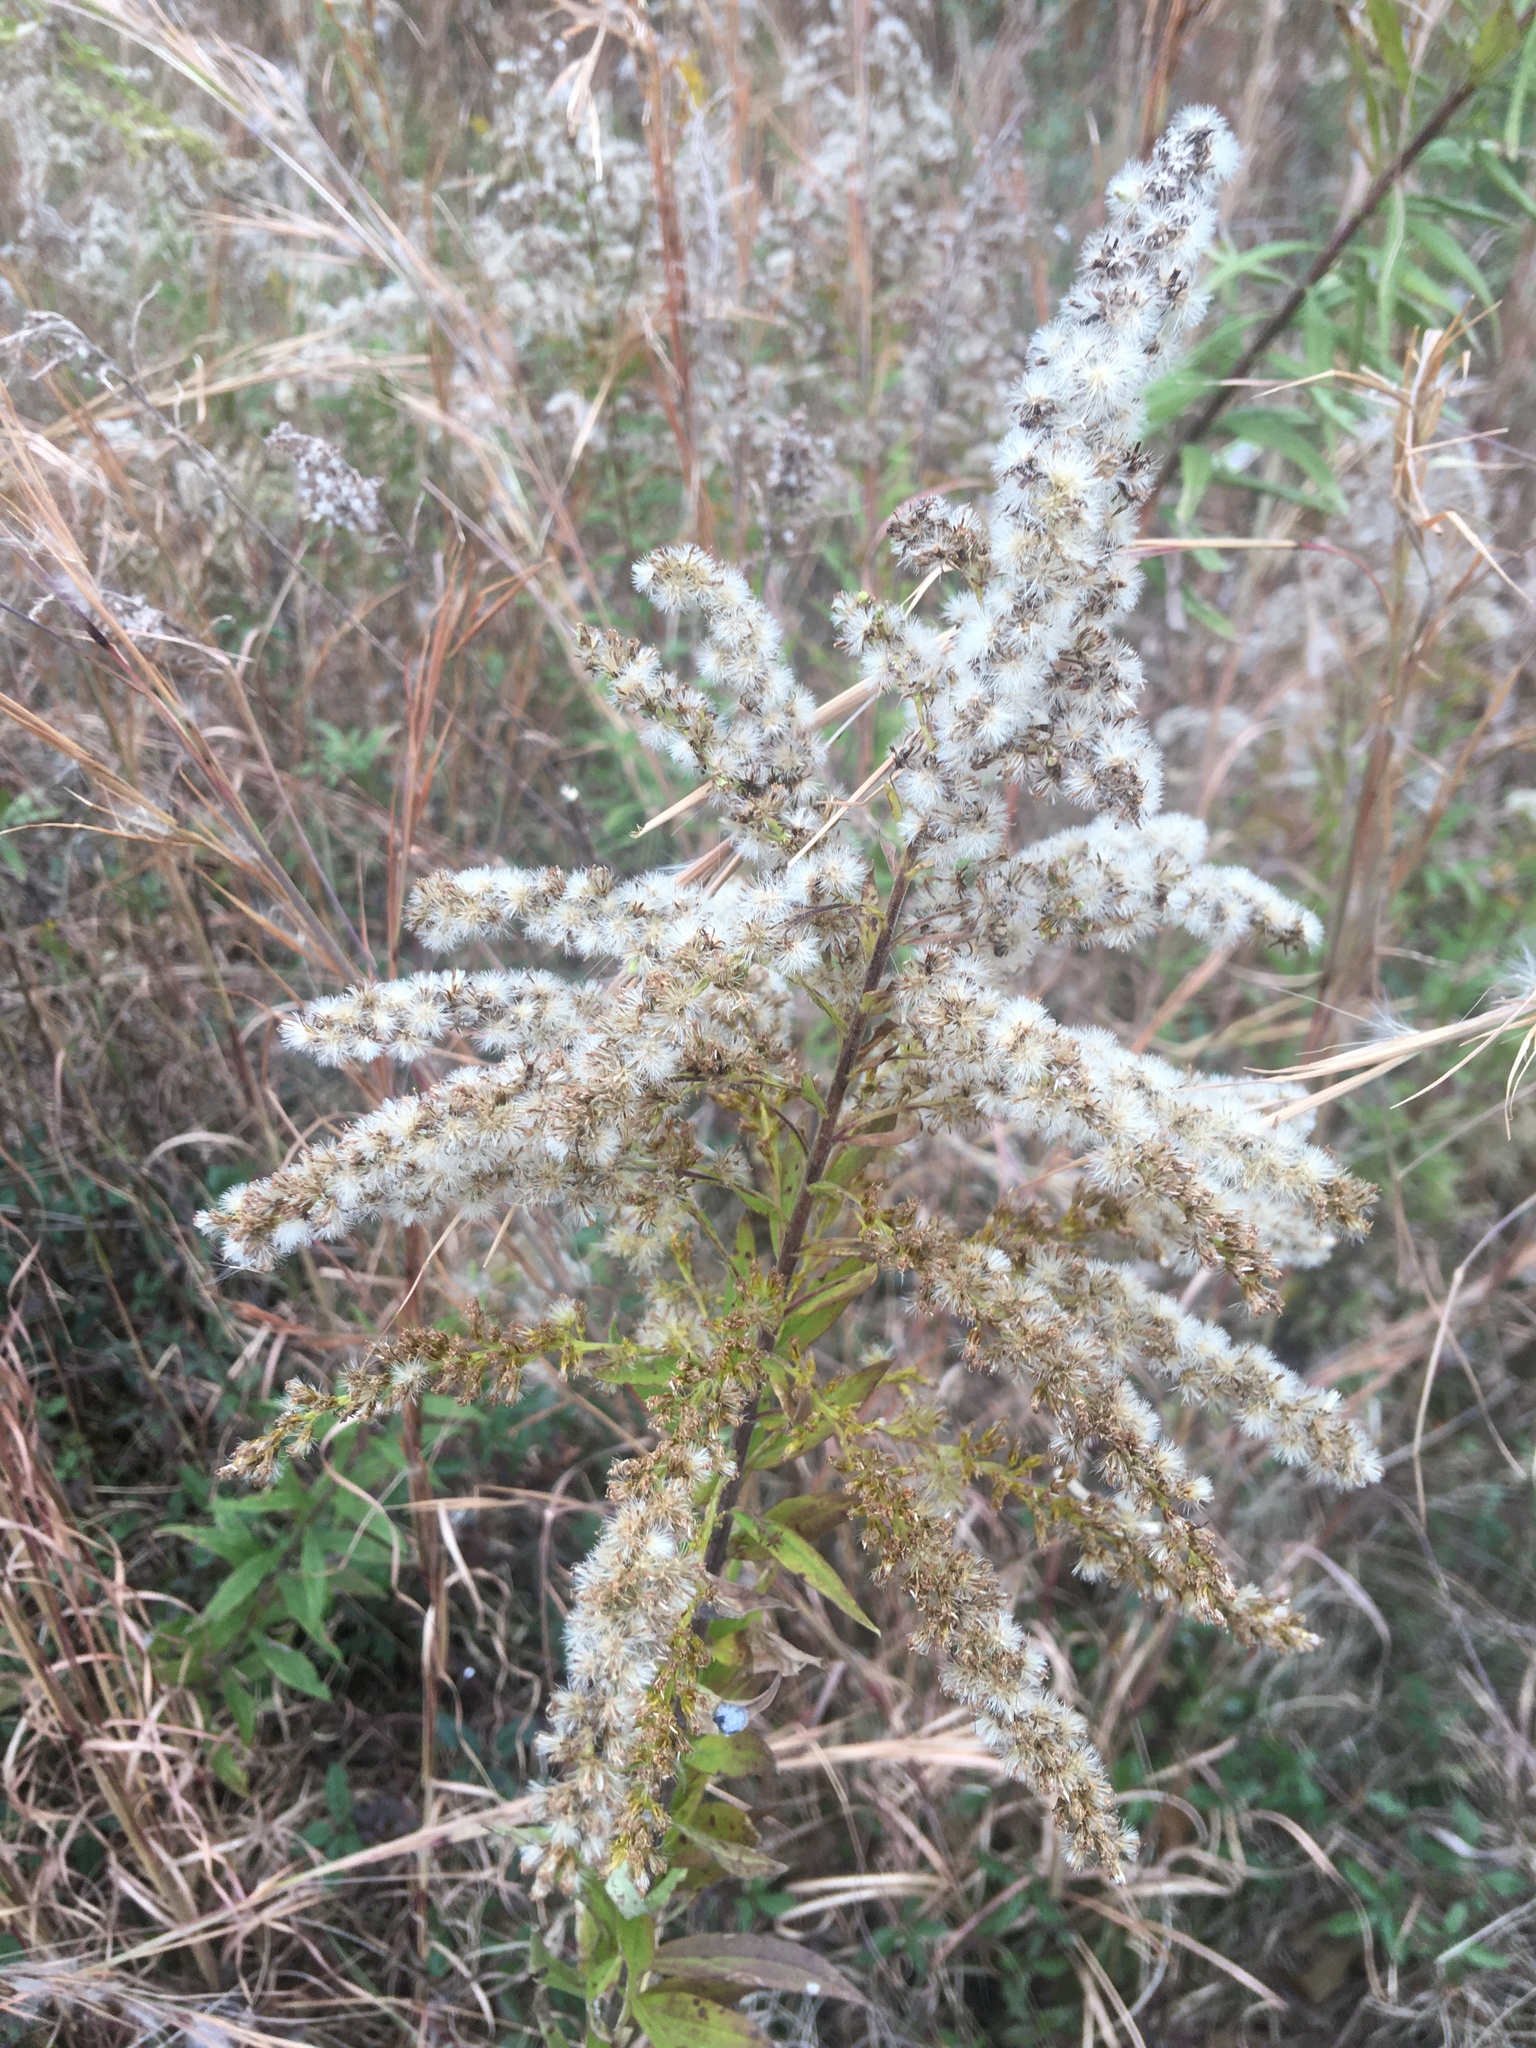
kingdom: Plantae
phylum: Tracheophyta
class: Magnoliopsida
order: Asterales
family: Asteraceae
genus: Solidago
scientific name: Solidago altissima
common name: Late goldenrod
